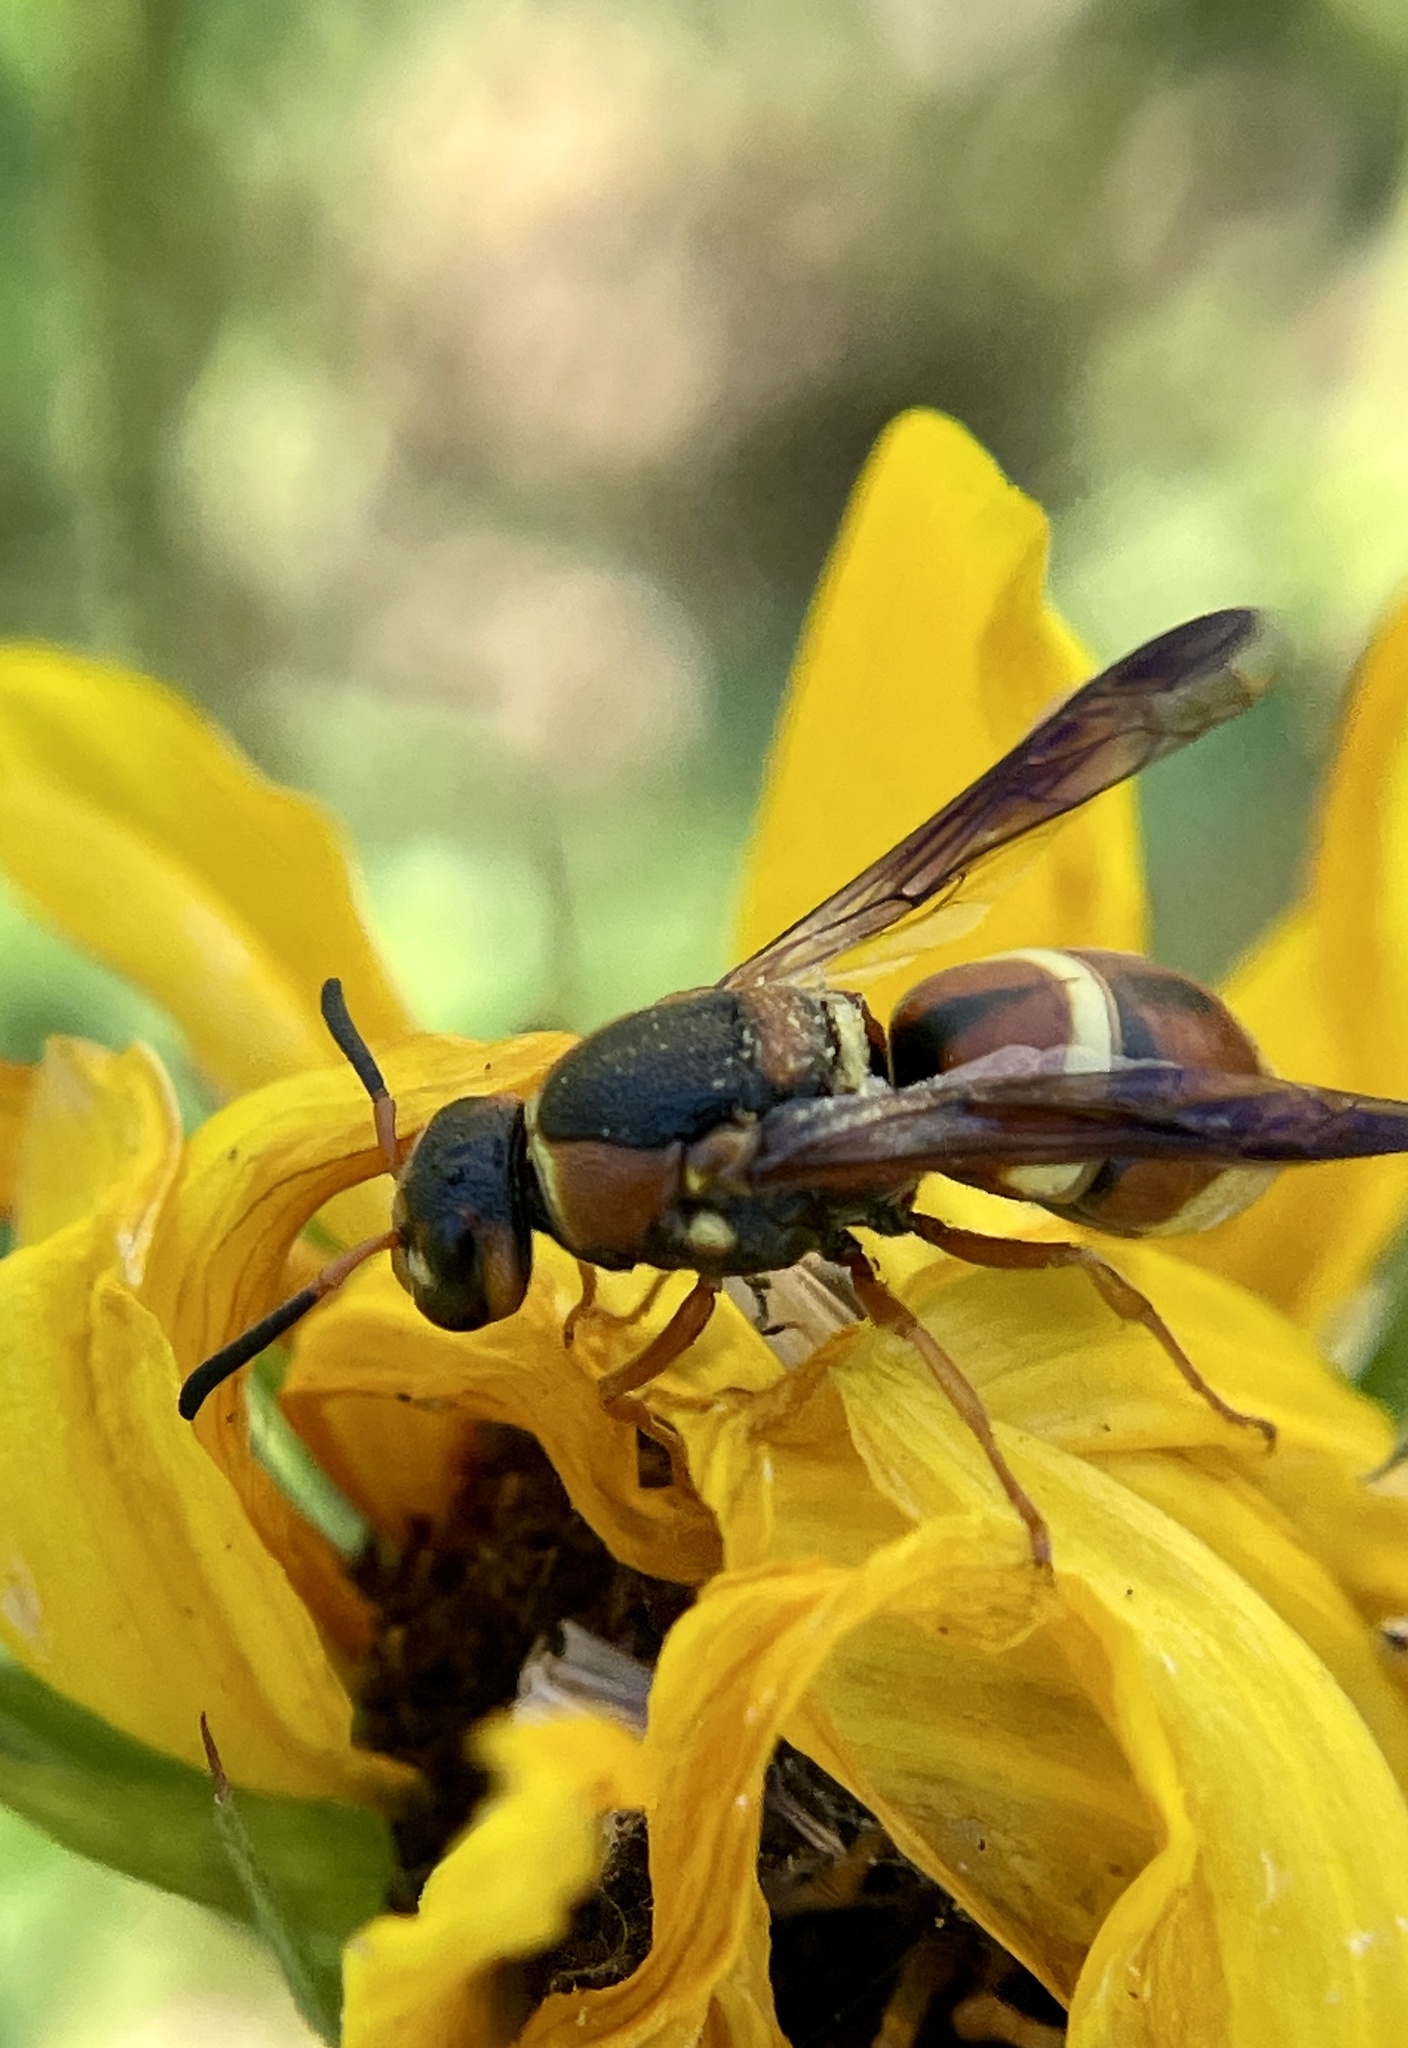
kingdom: Animalia
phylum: Arthropoda
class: Insecta
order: Hymenoptera
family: Eumenidae
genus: Euodynerus
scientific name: Euodynerus hidalgo
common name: Wasp
